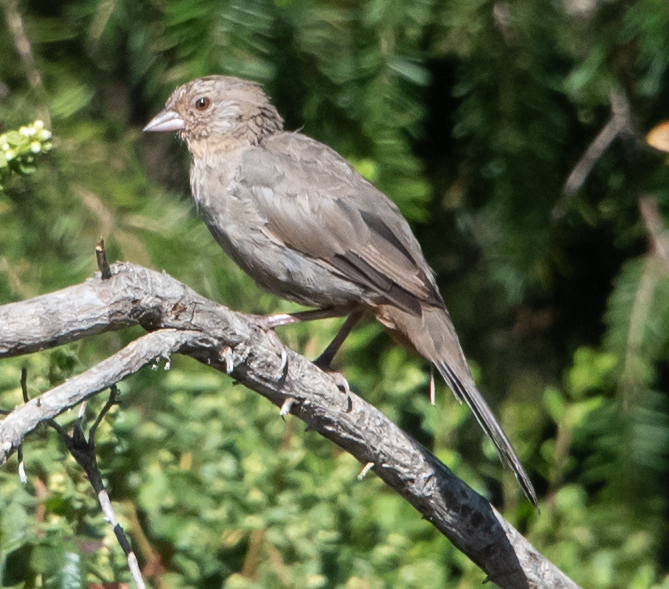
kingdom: Animalia
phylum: Chordata
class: Aves
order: Passeriformes
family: Passerellidae
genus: Melozone
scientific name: Melozone crissalis
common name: California towhee
